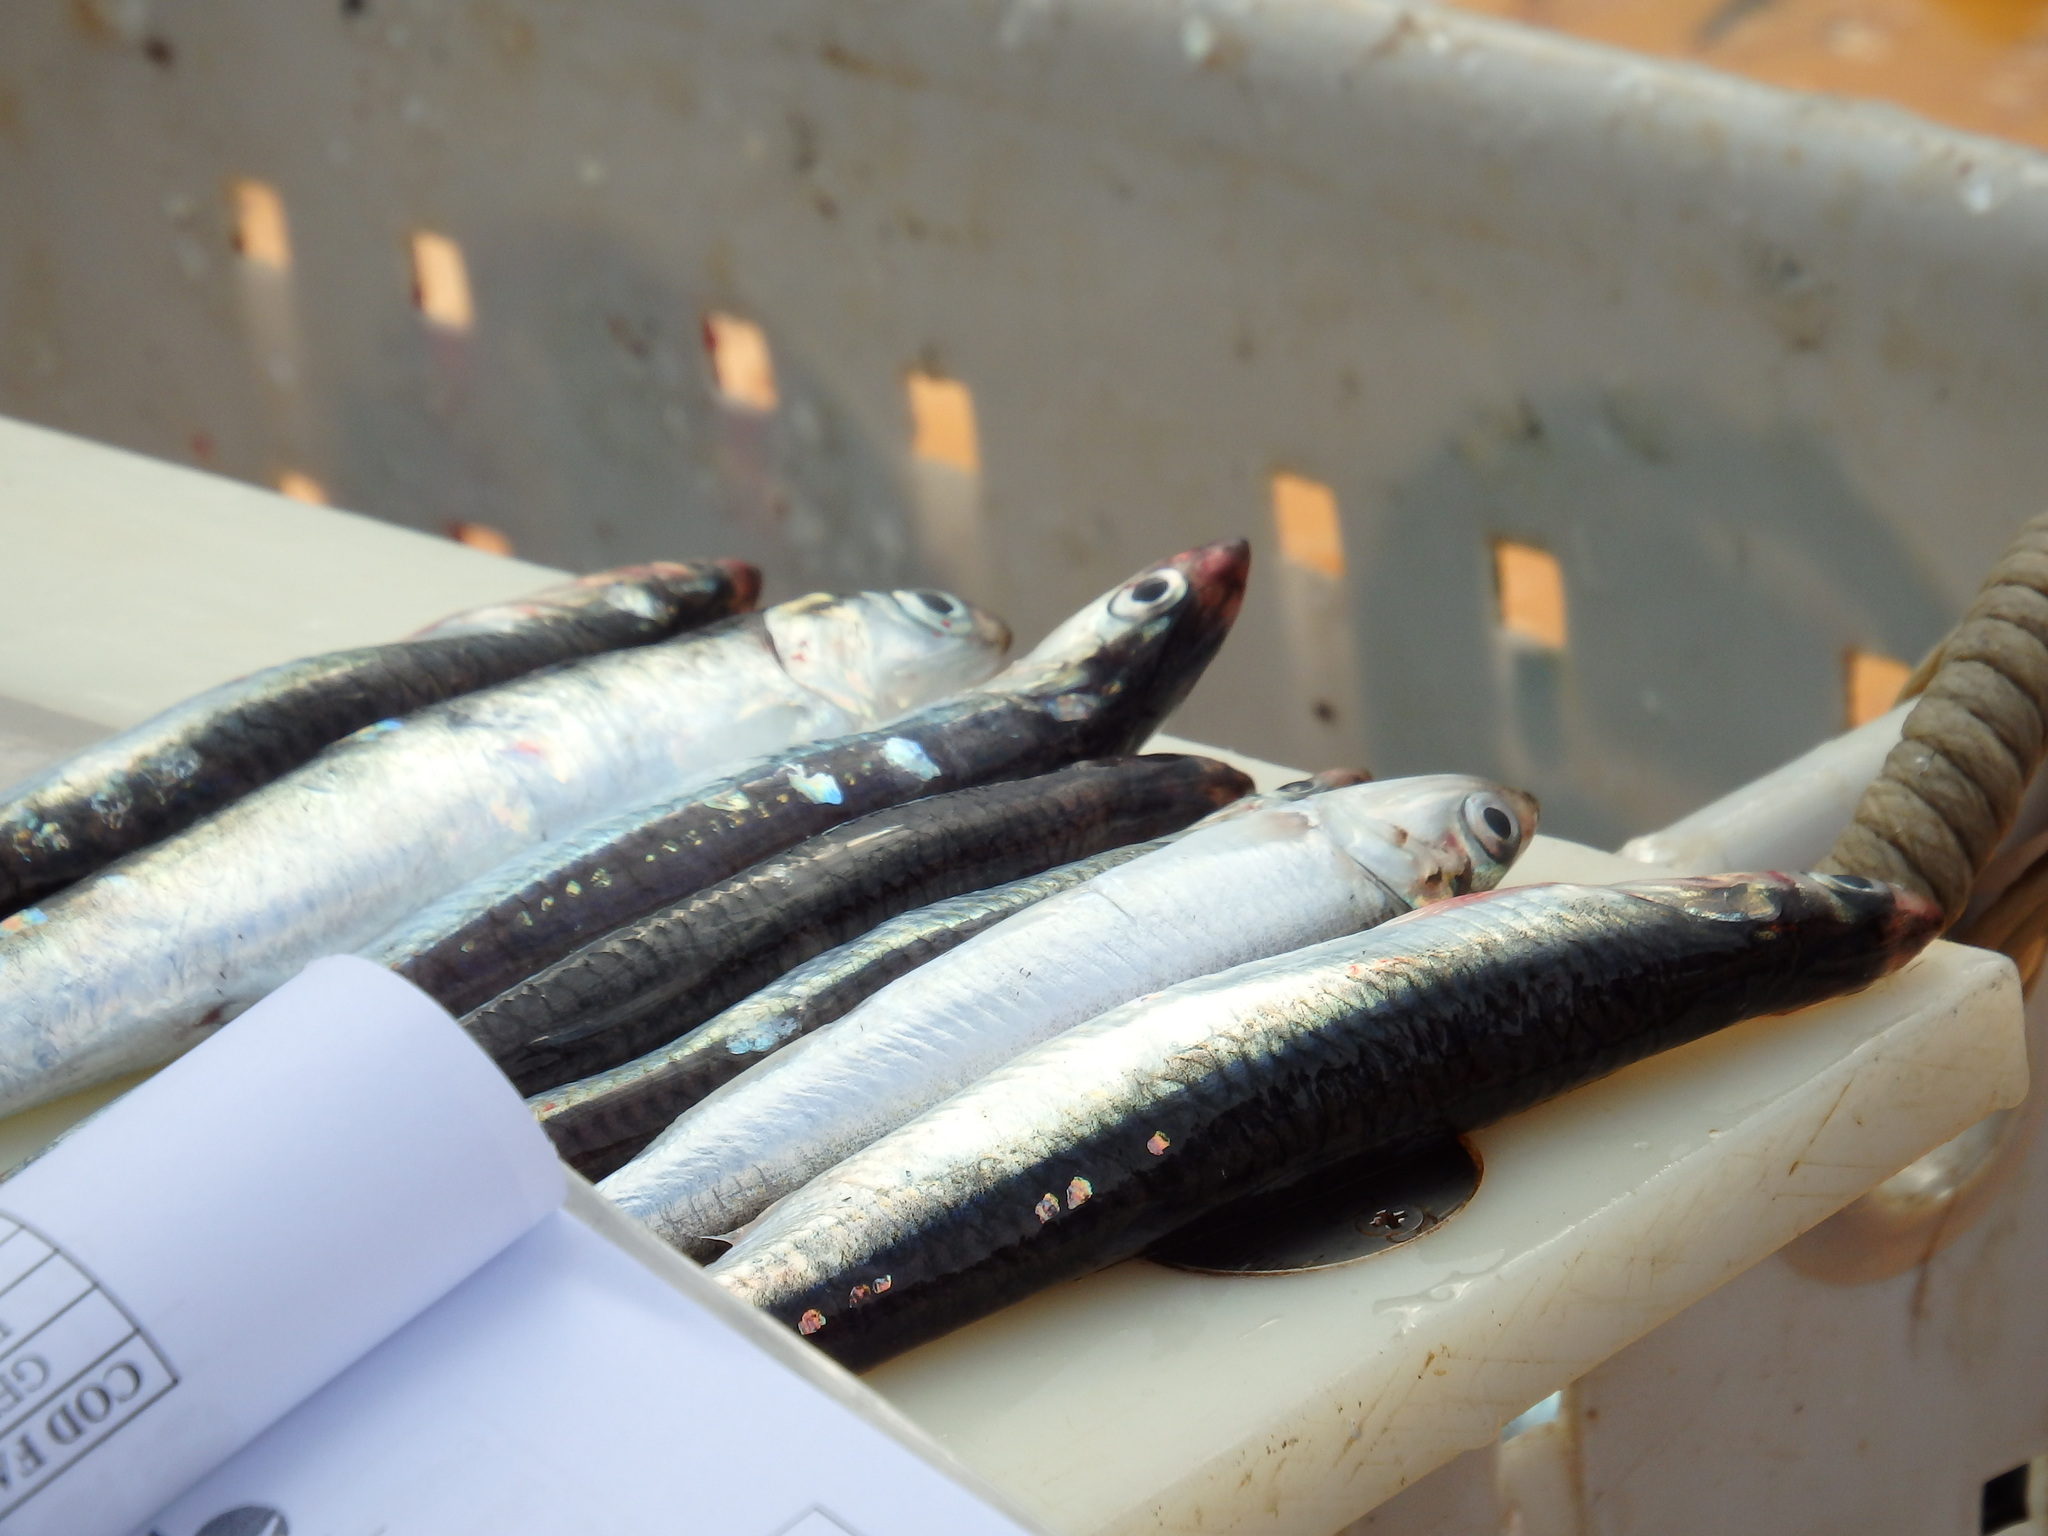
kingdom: Animalia
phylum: Chordata
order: Clupeiformes
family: Engraulidae
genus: Engraulis
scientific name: Engraulis encrasicolus
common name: European anchovy
